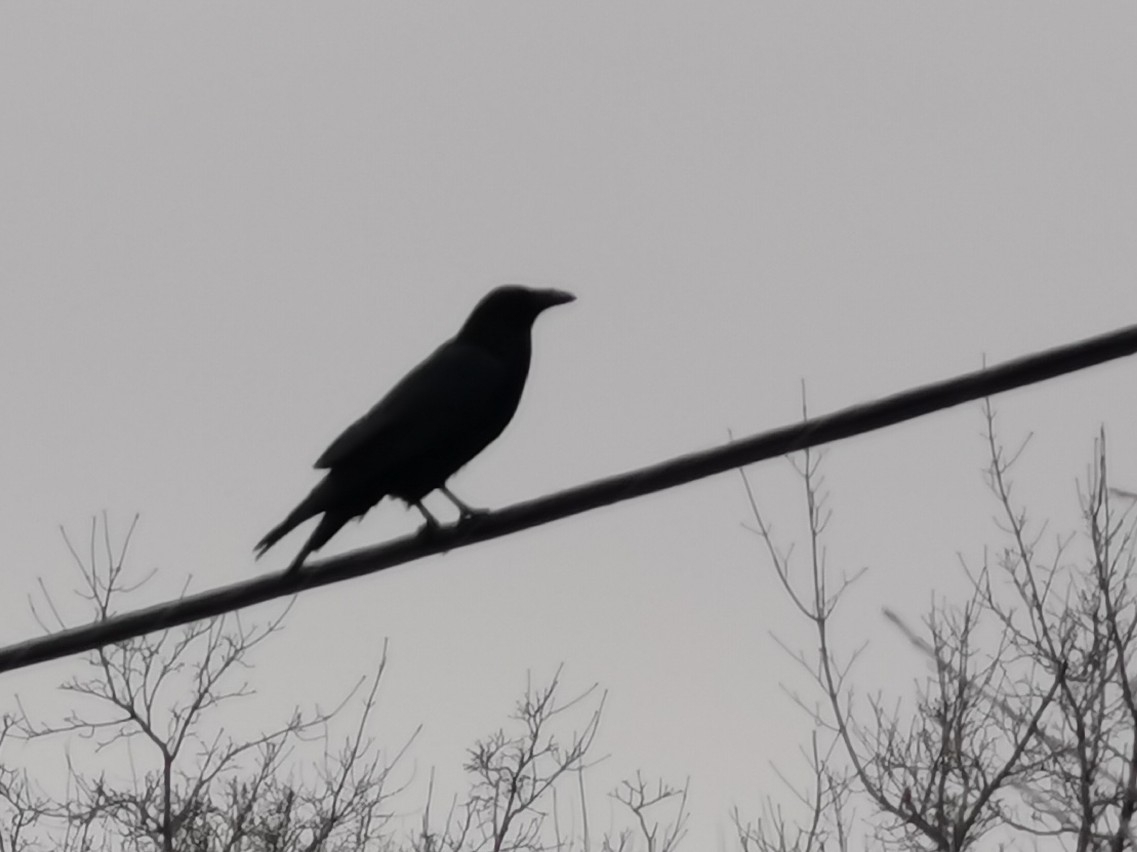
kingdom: Animalia
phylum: Chordata
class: Aves
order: Passeriformes
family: Corvidae
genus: Corvus
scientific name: Corvus corax
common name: Common raven
